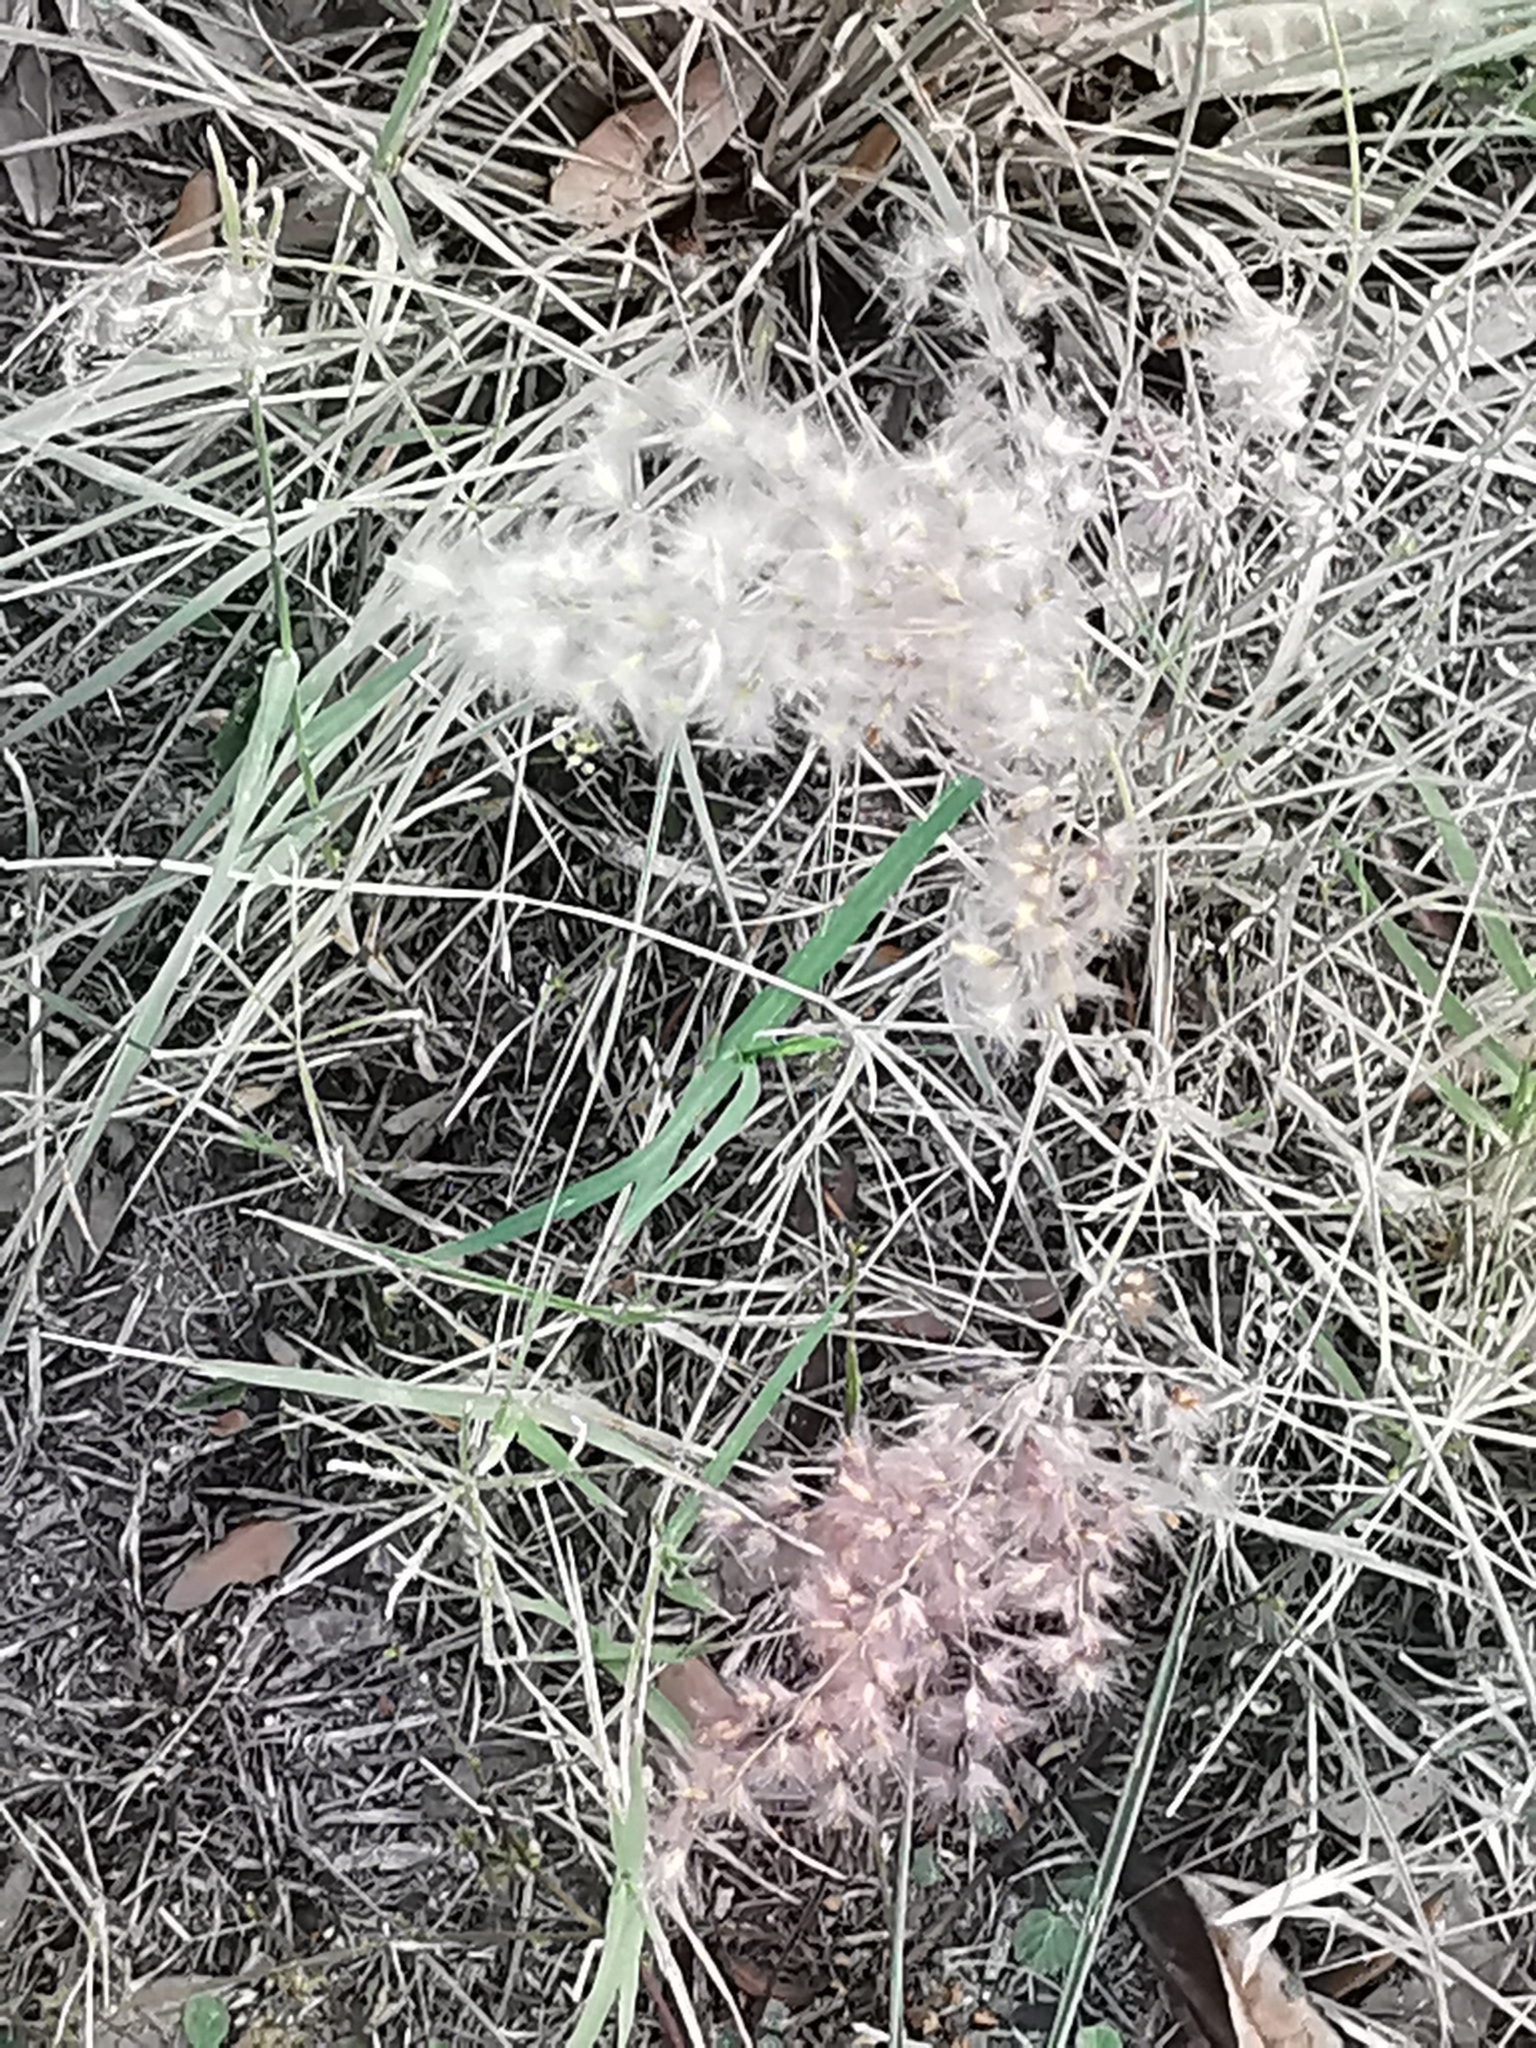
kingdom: Plantae
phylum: Tracheophyta
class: Liliopsida
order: Poales
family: Poaceae
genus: Melinis
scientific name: Melinis repens
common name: Rose natal grass
